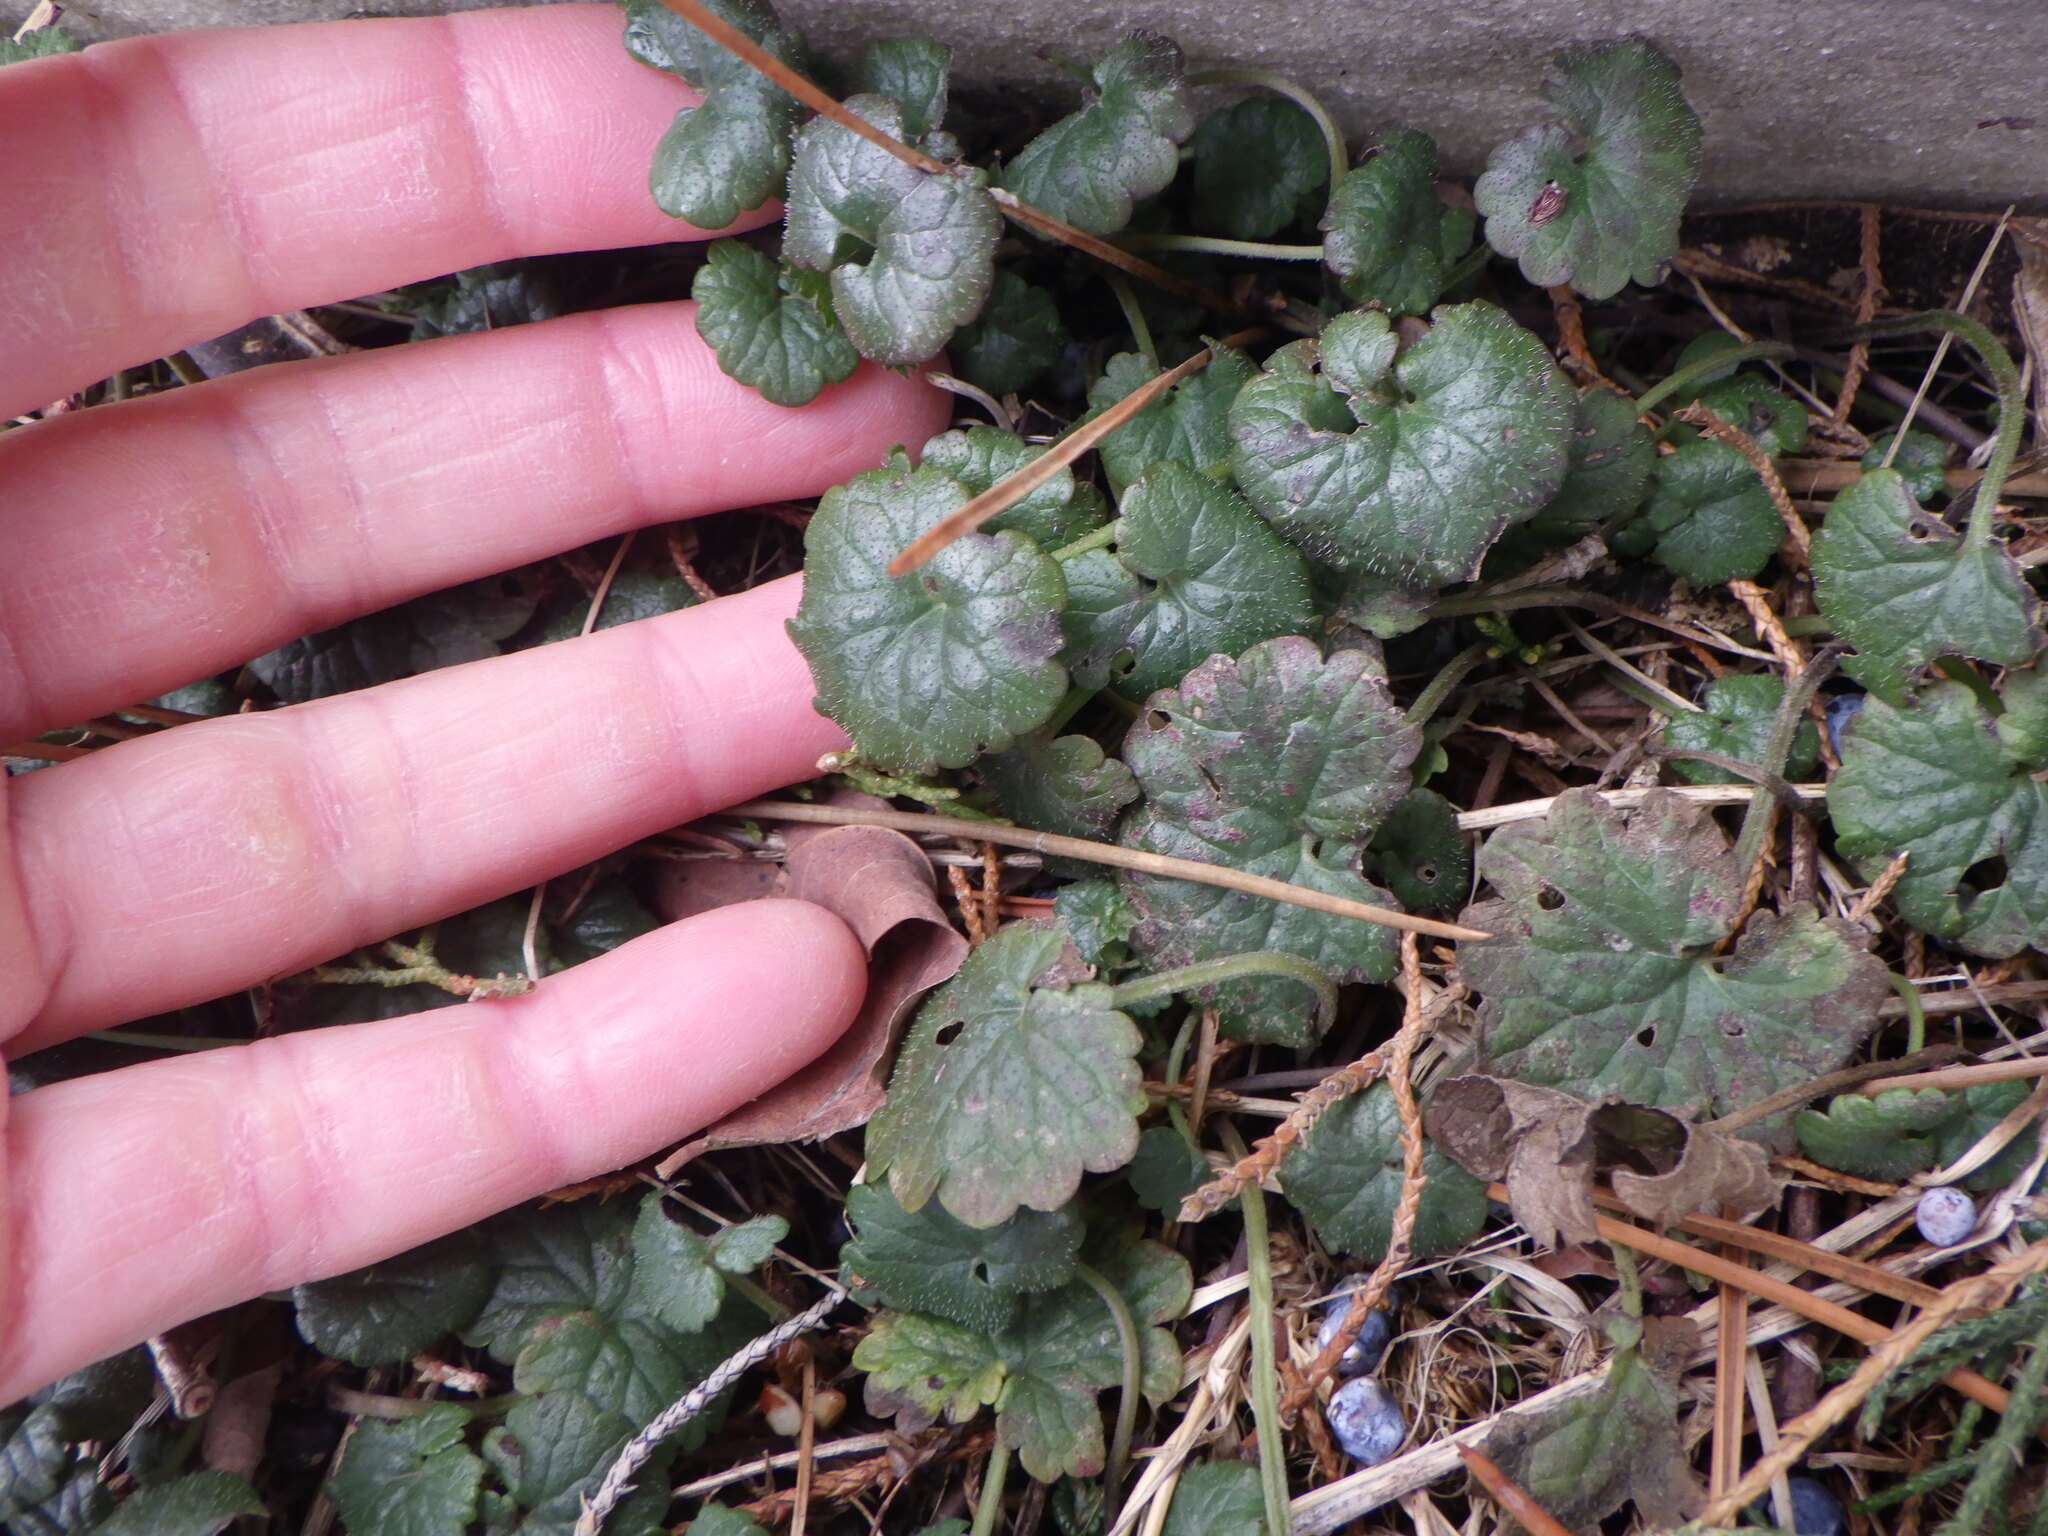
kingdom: Plantae
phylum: Tracheophyta
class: Magnoliopsida
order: Lamiales
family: Lamiaceae
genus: Glechoma
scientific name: Glechoma hederacea
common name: Ground ivy
